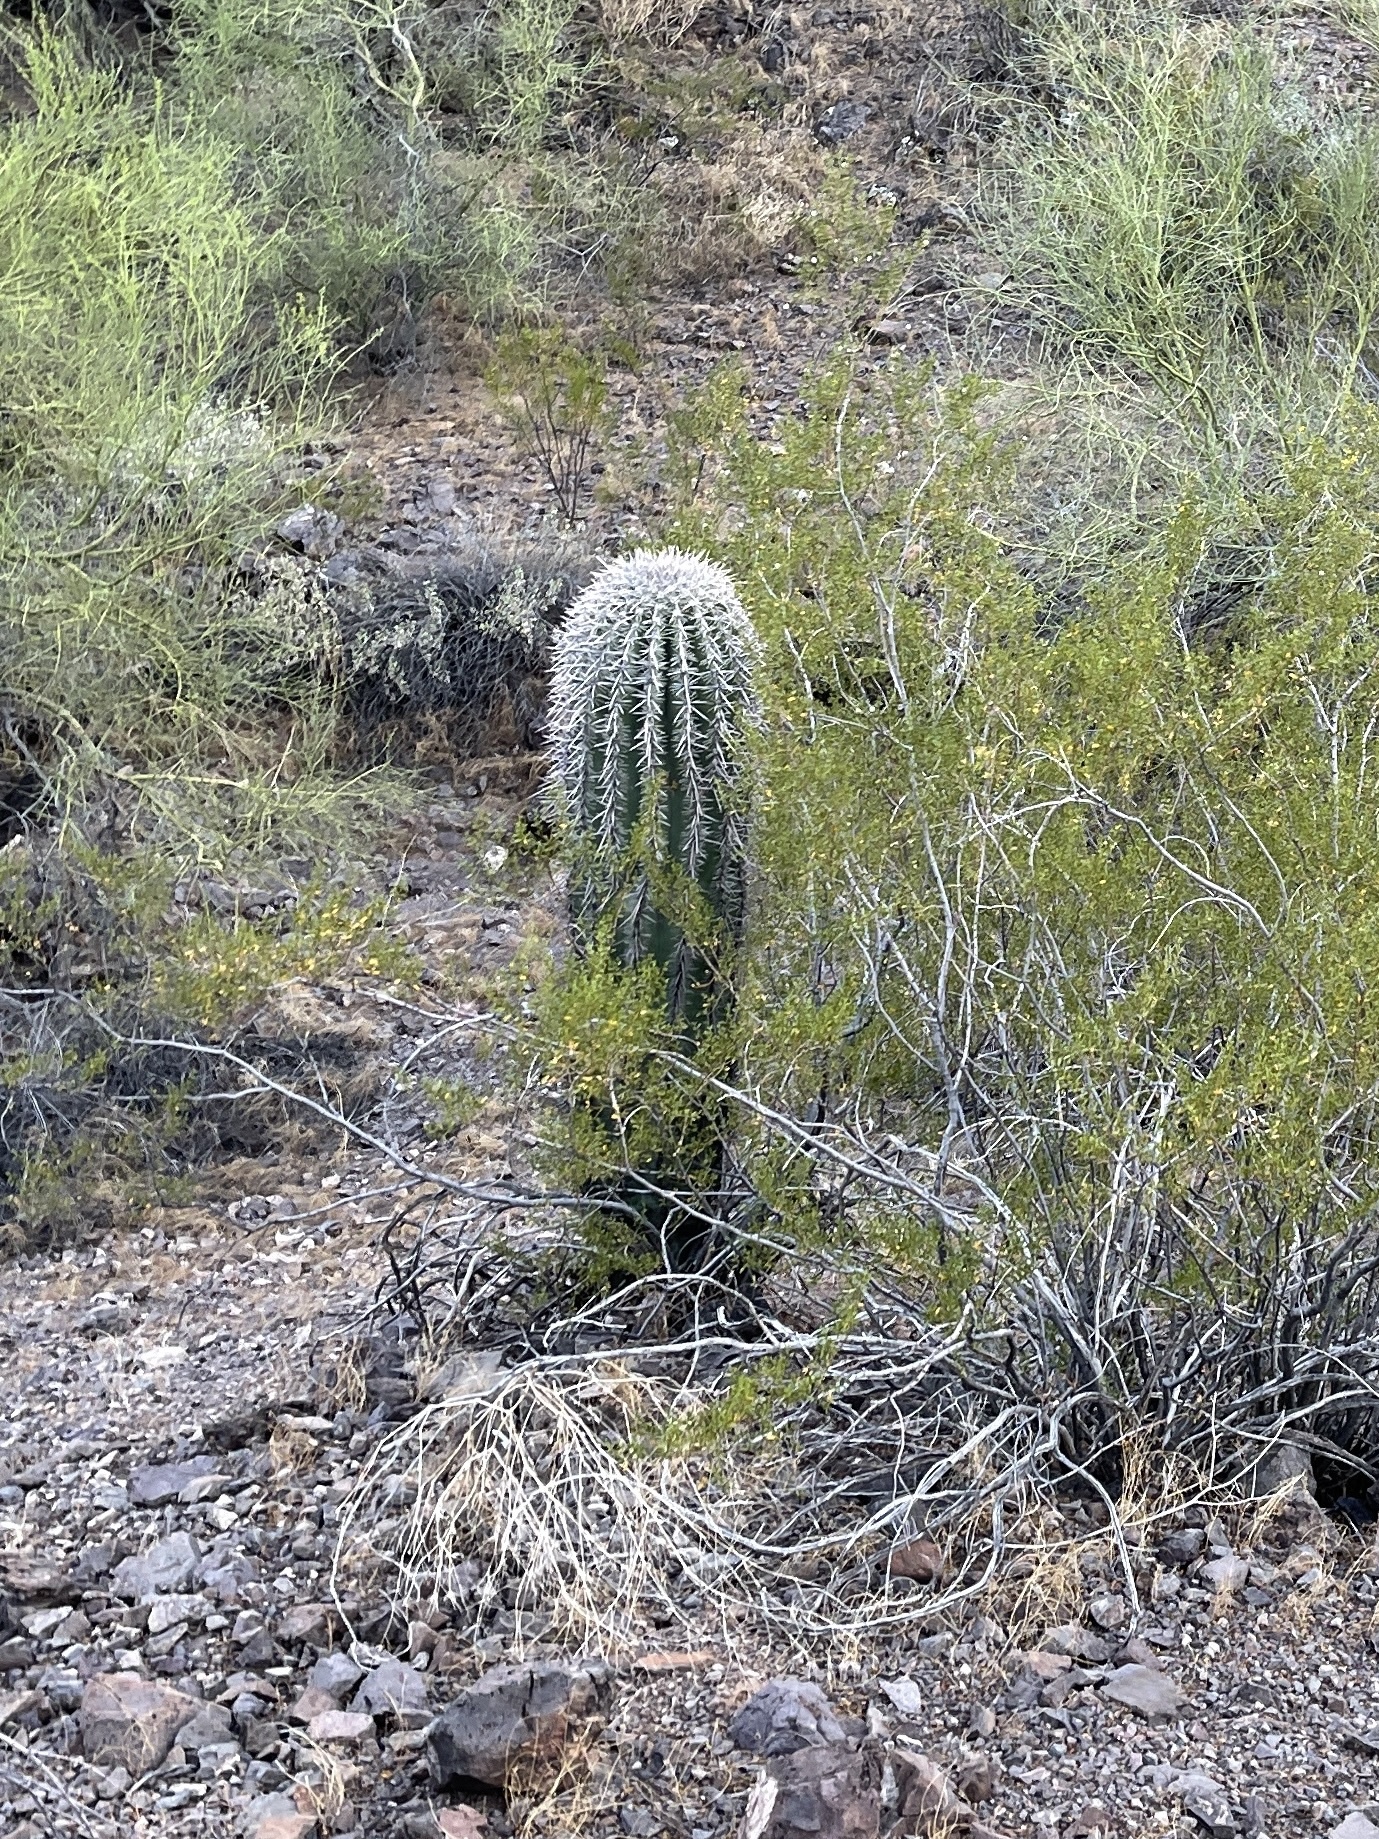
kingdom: Plantae
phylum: Tracheophyta
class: Magnoliopsida
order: Caryophyllales
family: Cactaceae
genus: Carnegiea
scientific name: Carnegiea gigantea
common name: Saguaro
